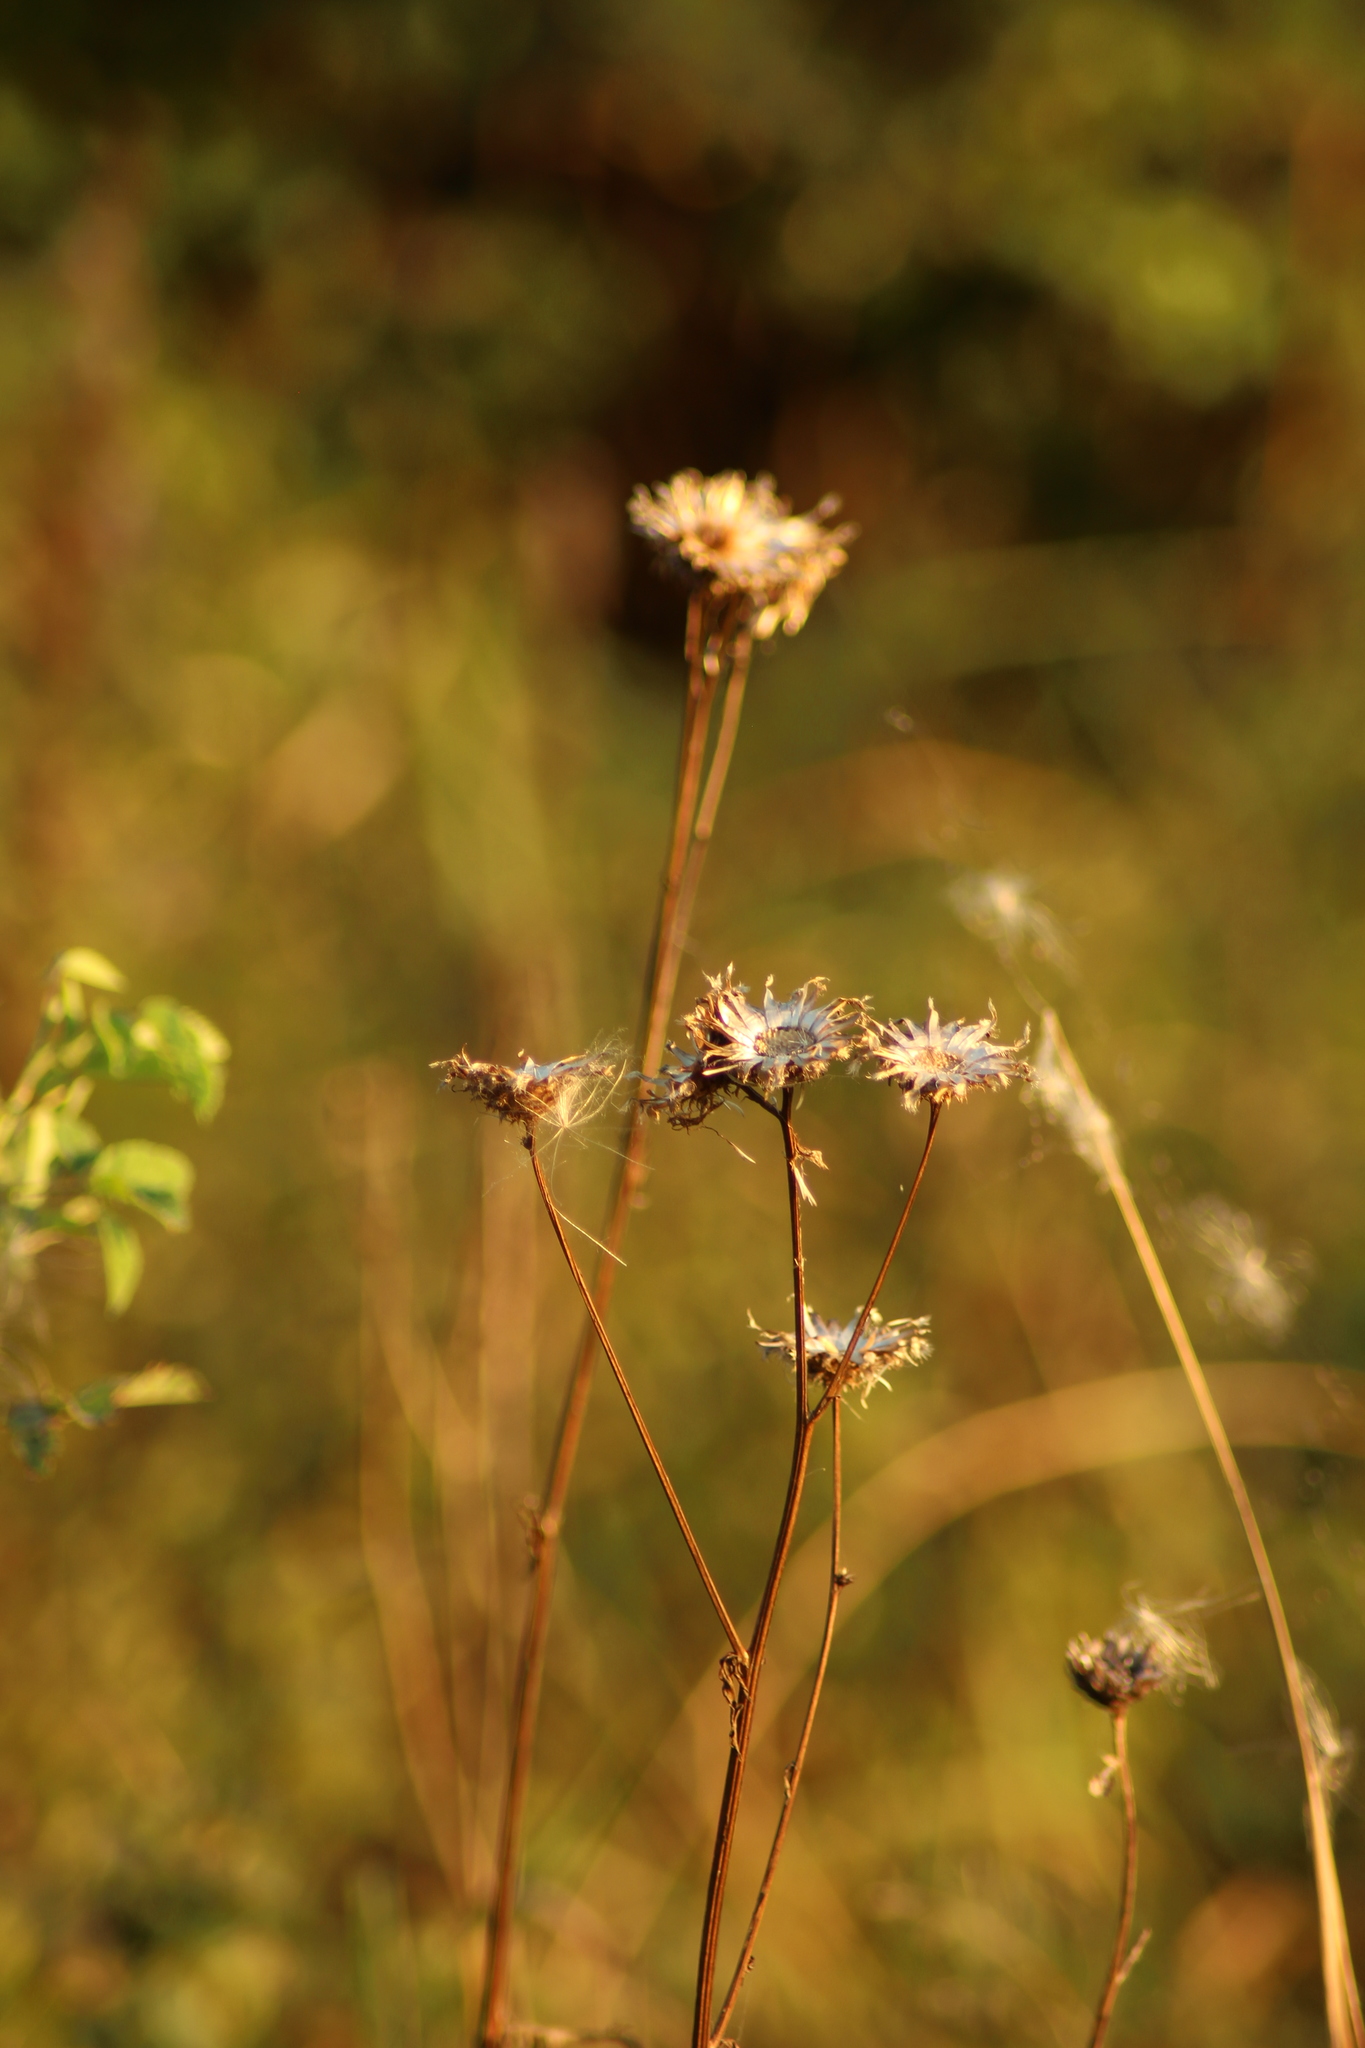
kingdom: Plantae
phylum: Tracheophyta
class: Magnoliopsida
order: Asterales
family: Asteraceae
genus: Centaurea
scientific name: Centaurea scabiosa
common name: Greater knapweed
